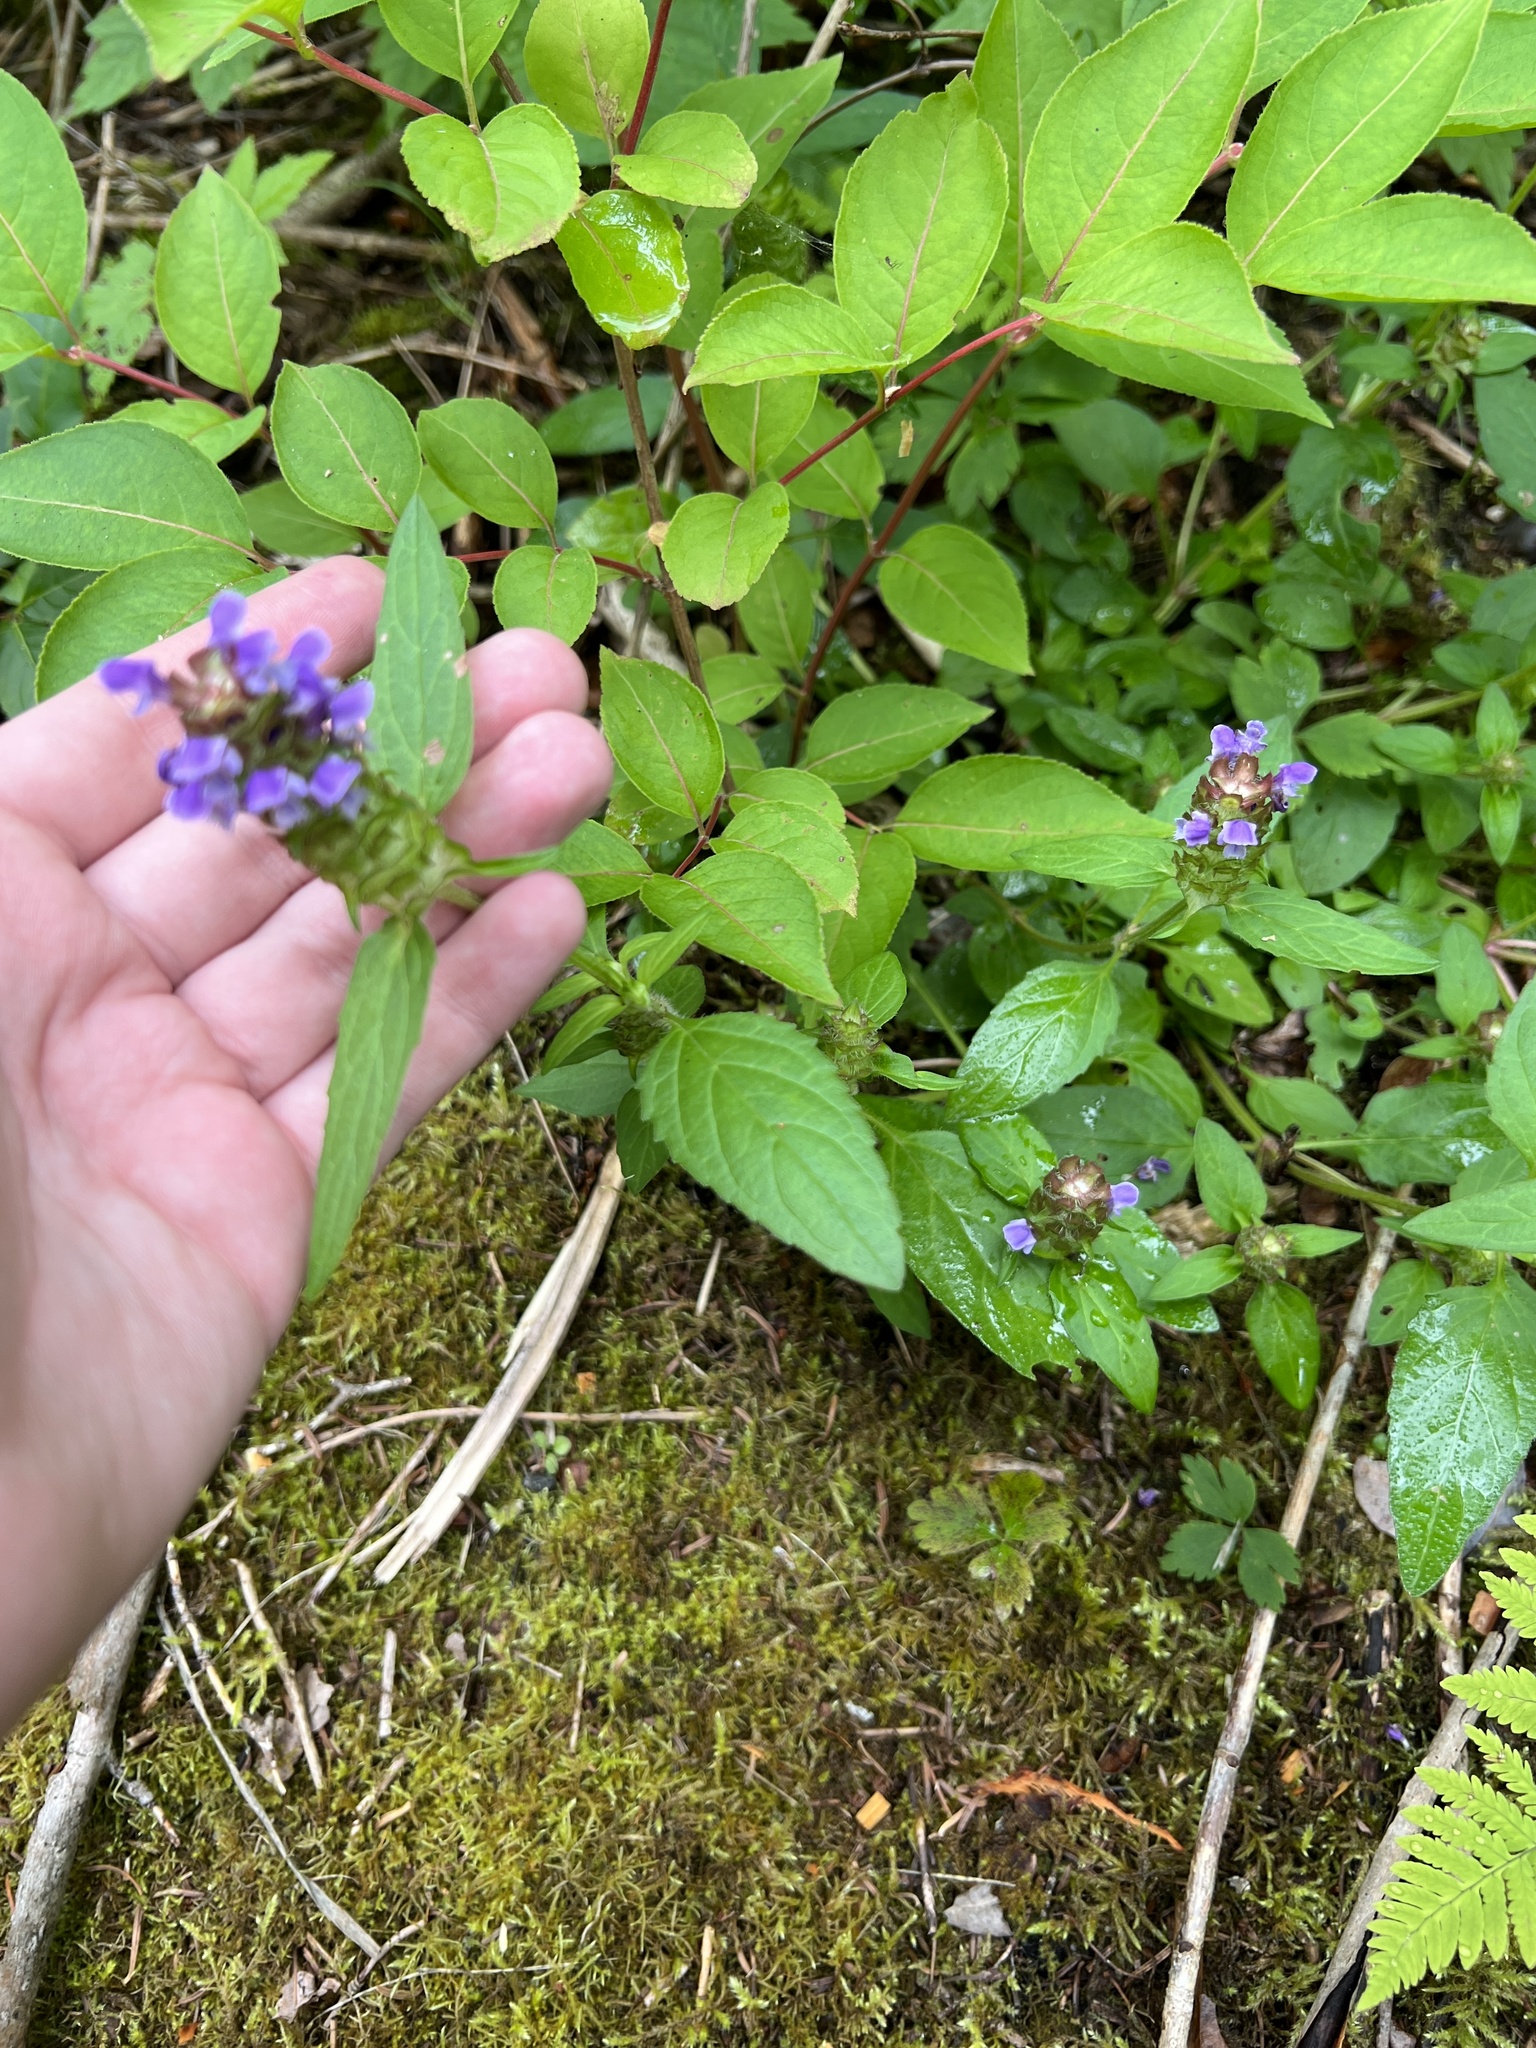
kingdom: Plantae
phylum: Tracheophyta
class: Magnoliopsida
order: Lamiales
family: Lamiaceae
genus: Prunella
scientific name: Prunella vulgaris
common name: Heal-all
